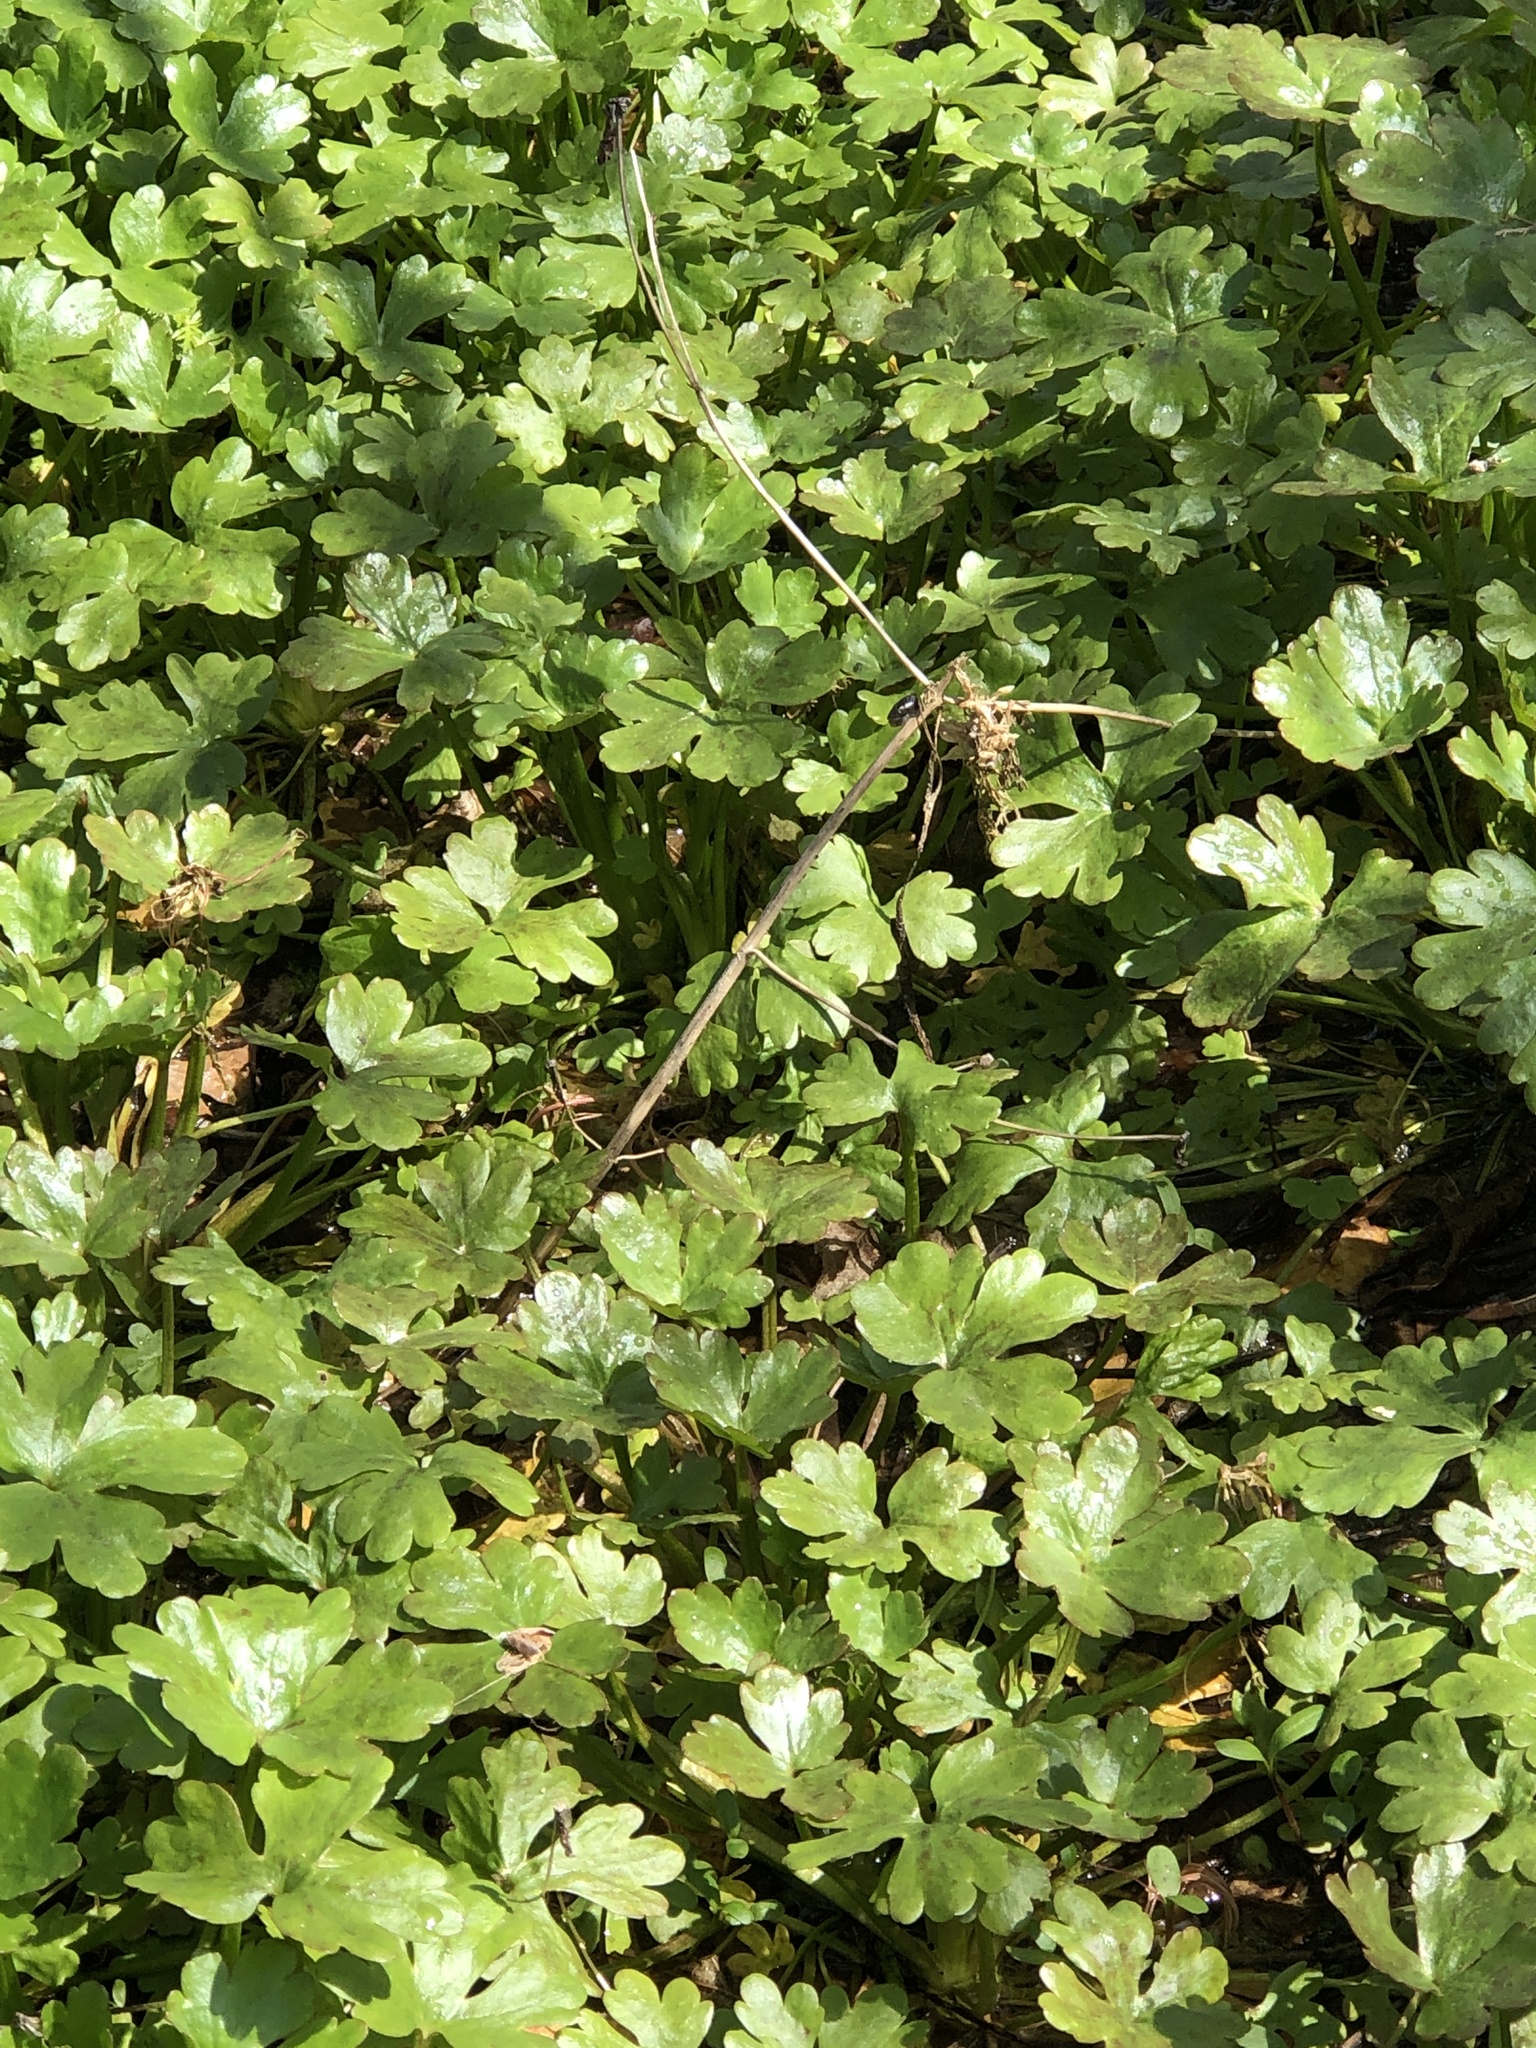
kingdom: Plantae
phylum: Tracheophyta
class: Magnoliopsida
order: Ranunculales
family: Ranunculaceae
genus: Ranunculus
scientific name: Ranunculus sceleratus
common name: Celery-leaved buttercup
